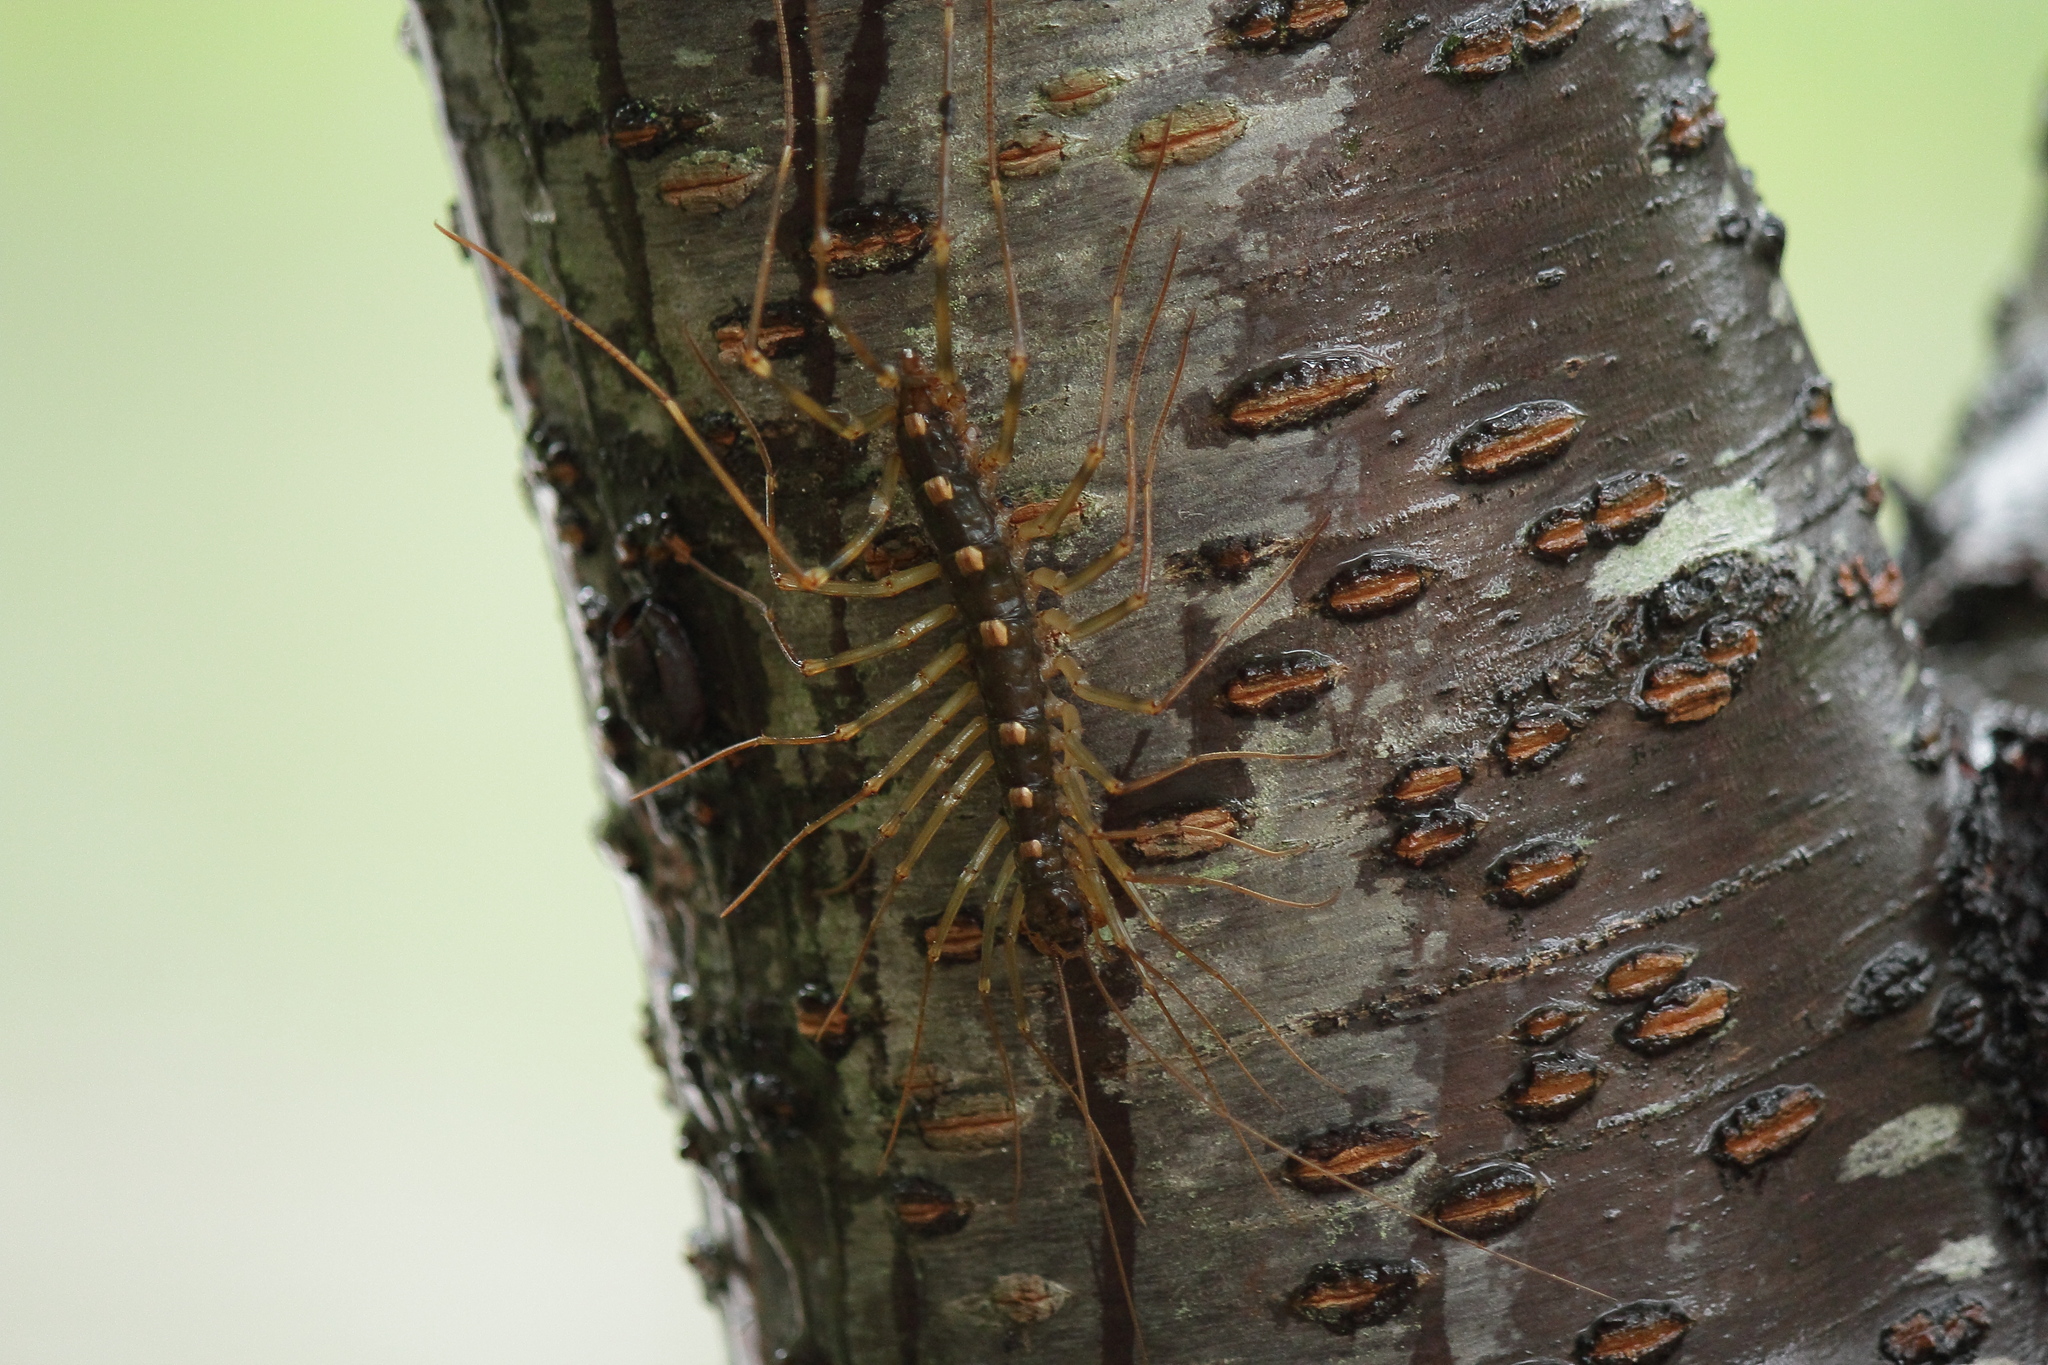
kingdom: Animalia
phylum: Arthropoda
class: Chilopoda
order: Scutigeromorpha
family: Scutigeridae
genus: Thereuopoda
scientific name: Thereuopoda clunifera
